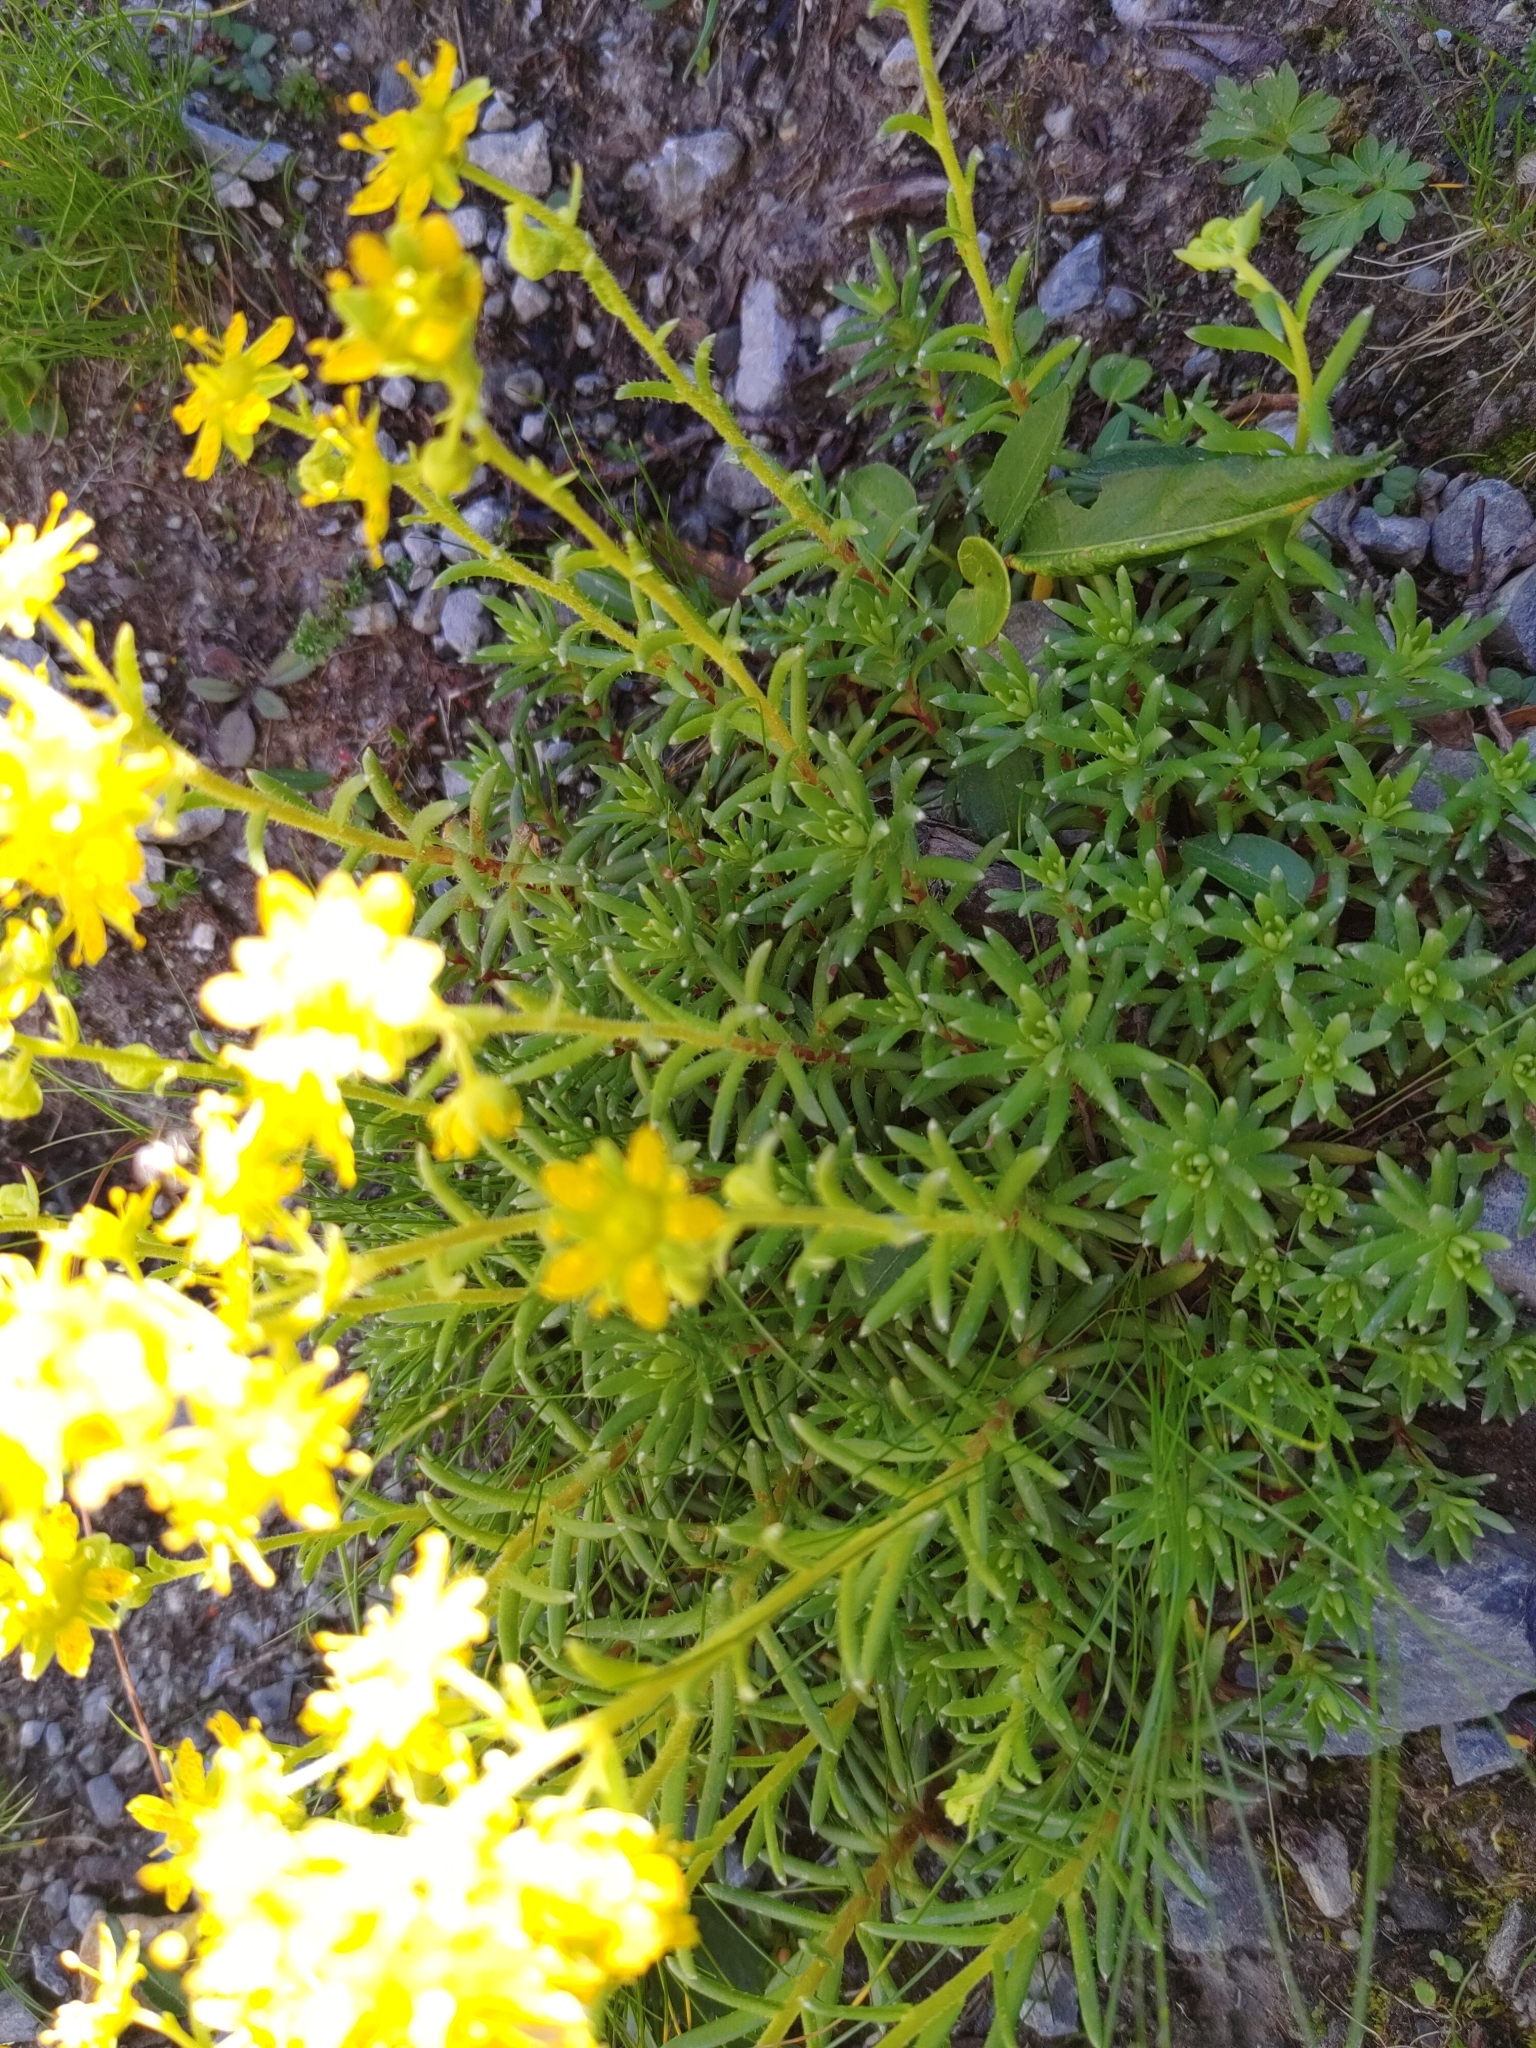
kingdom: Plantae
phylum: Tracheophyta
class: Magnoliopsida
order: Saxifragales
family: Saxifragaceae
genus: Saxifraga
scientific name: Saxifraga aizoides
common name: Yellow mountain saxifrage
